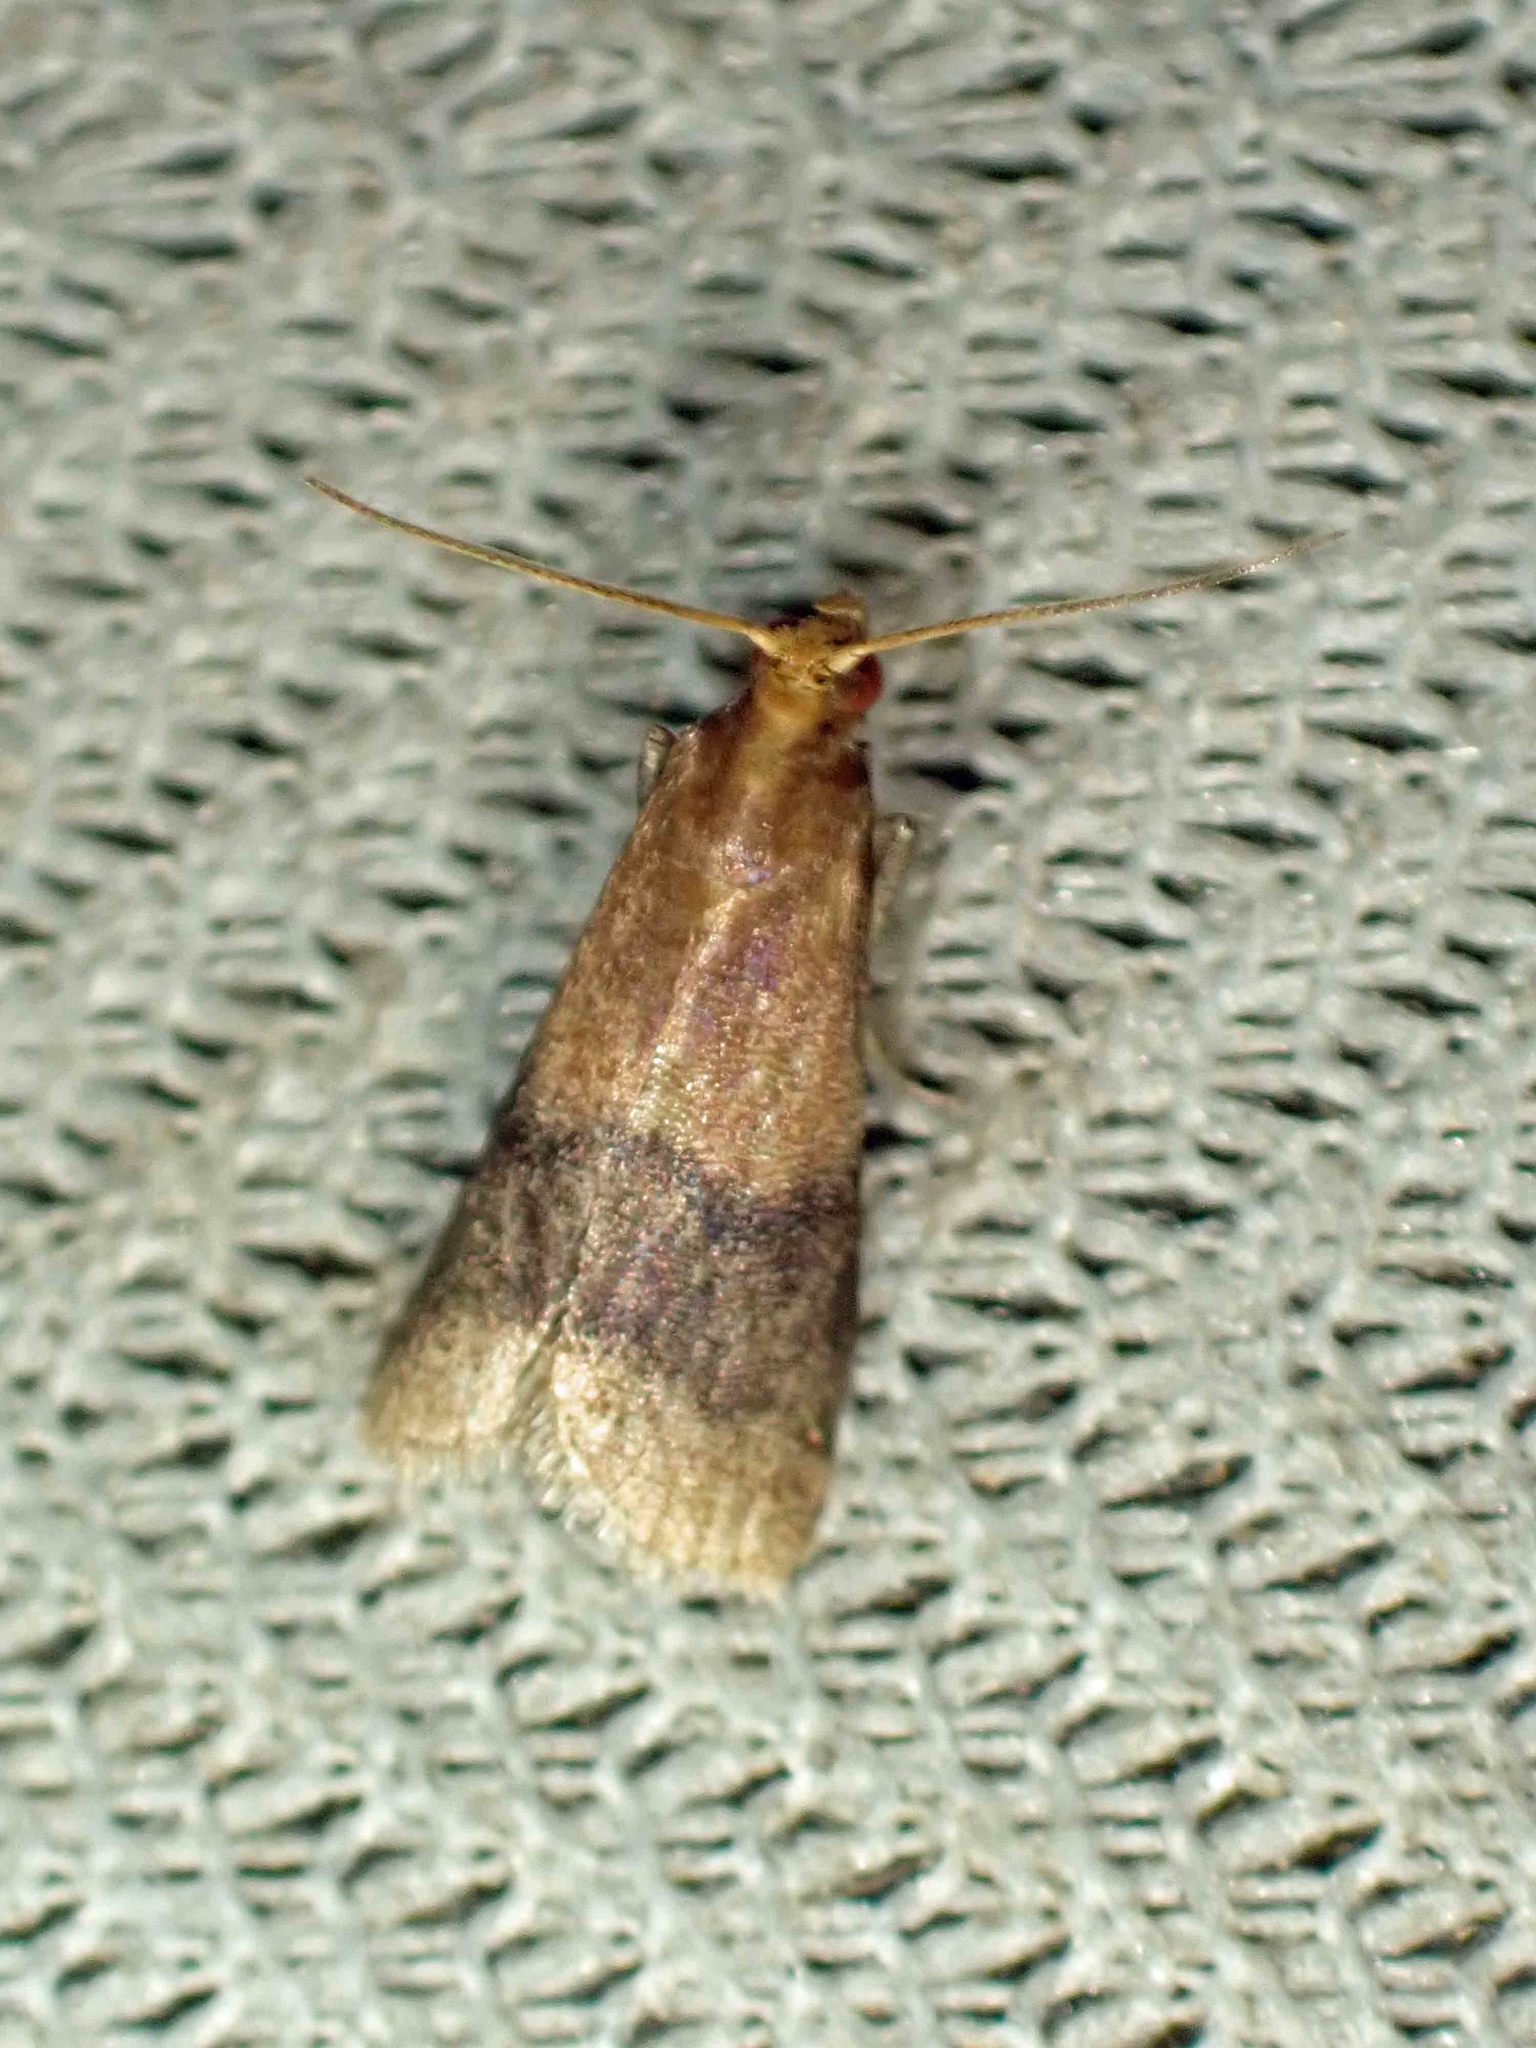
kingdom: Animalia
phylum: Arthropoda
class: Insecta
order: Lepidoptera
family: Pyralidae
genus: Eulogia
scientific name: Eulogia ochrifrontella
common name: Broad-banded eulogia moth
